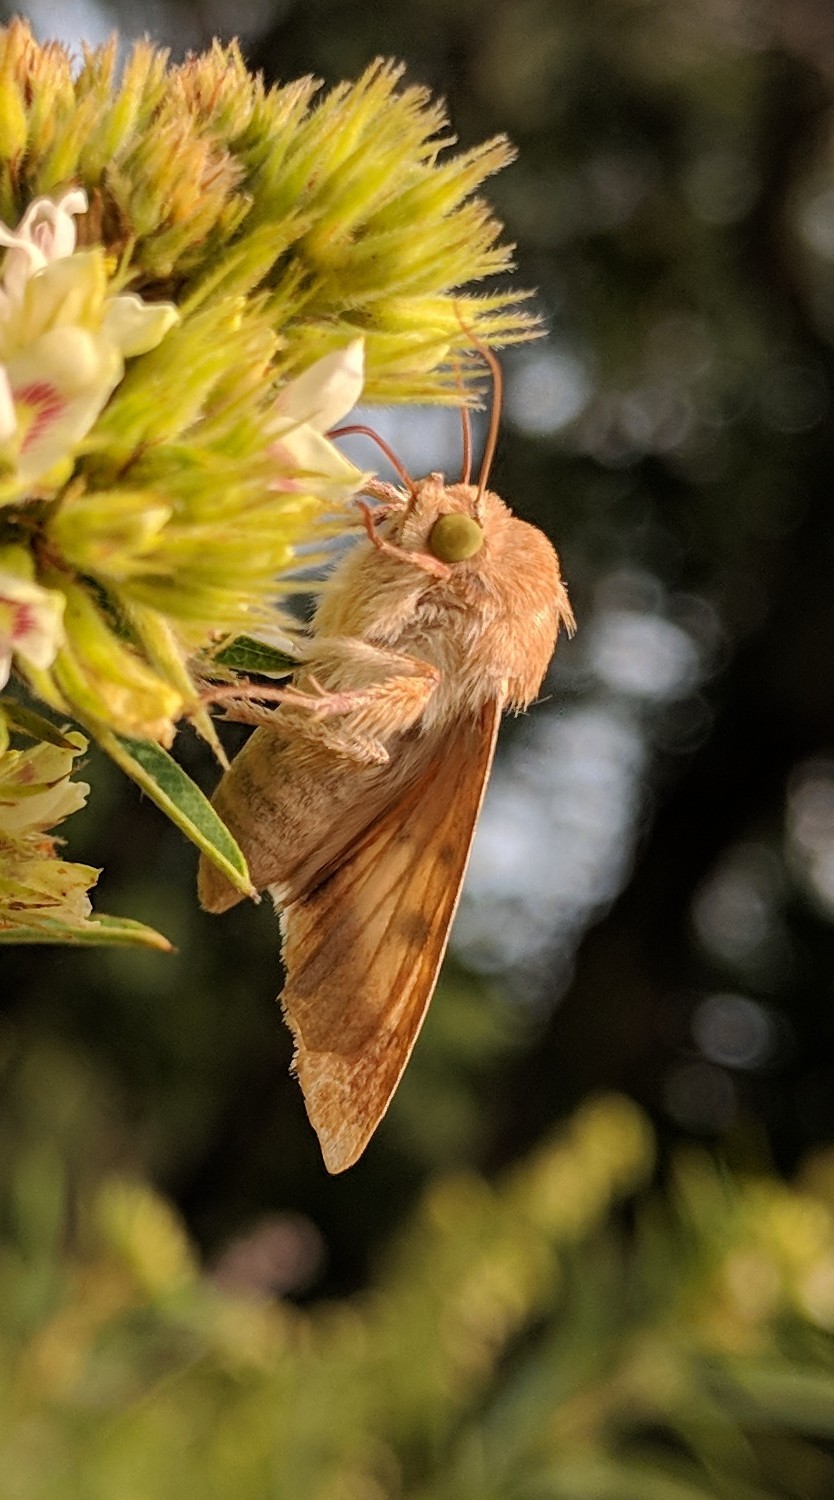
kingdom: Animalia
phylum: Arthropoda
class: Insecta
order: Lepidoptera
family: Noctuidae
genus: Helicoverpa
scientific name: Helicoverpa zea
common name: Bollworm
